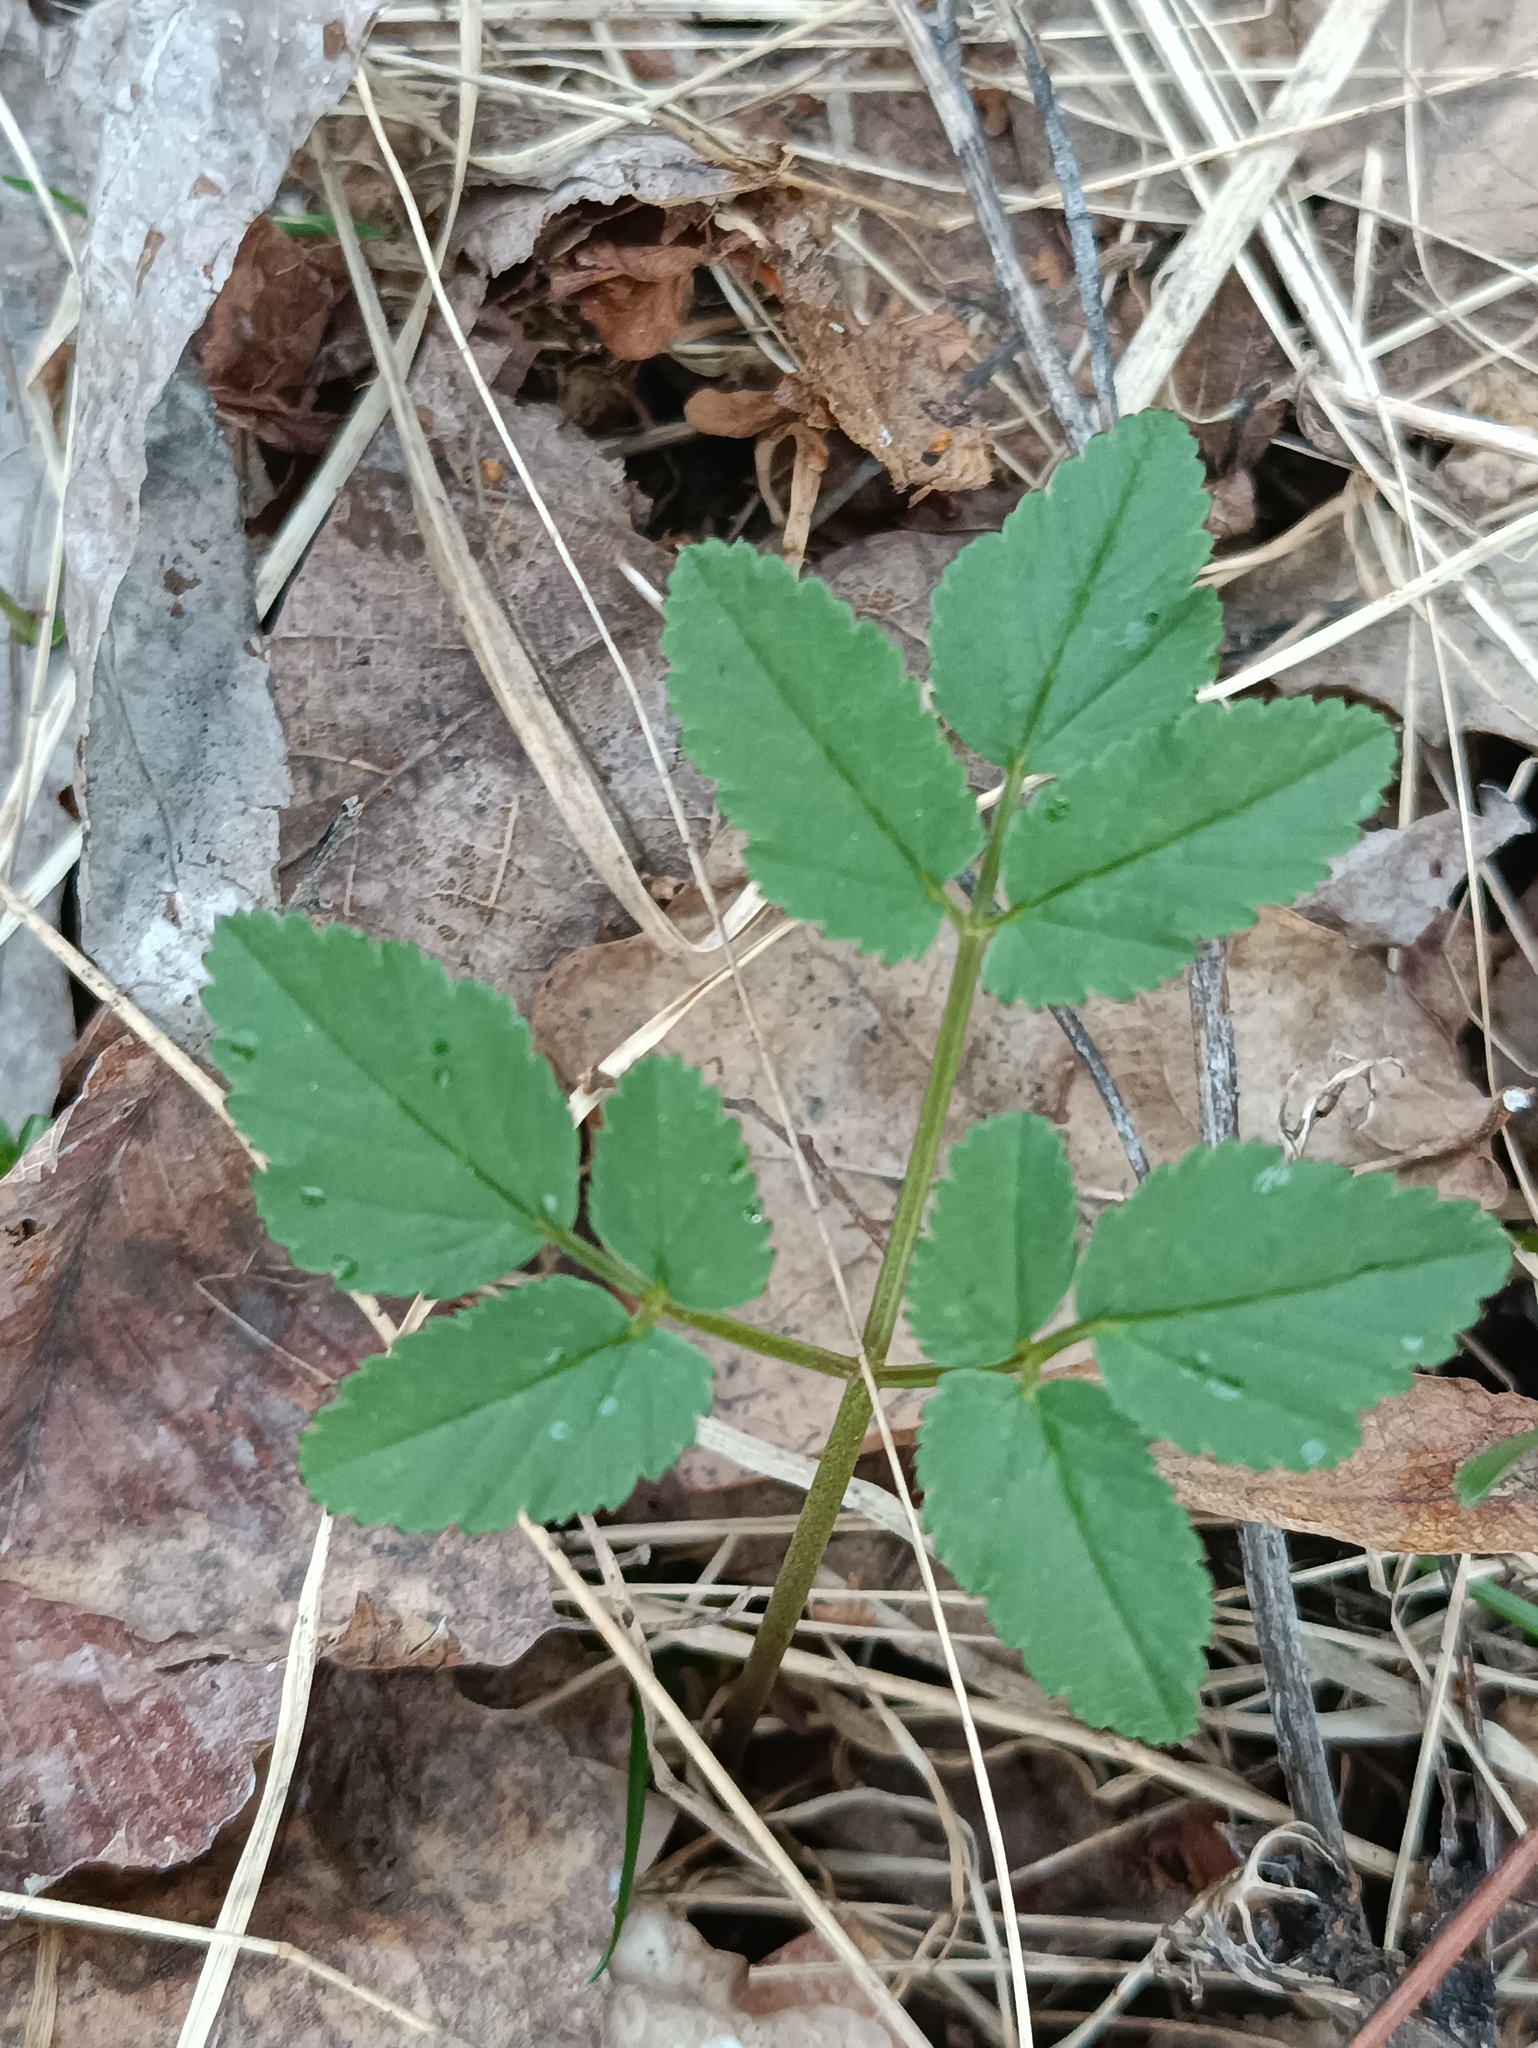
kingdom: Plantae
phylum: Tracheophyta
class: Magnoliopsida
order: Apiales
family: Apiaceae
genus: Aegopodium
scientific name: Aegopodium podagraria
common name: Ground-elder
